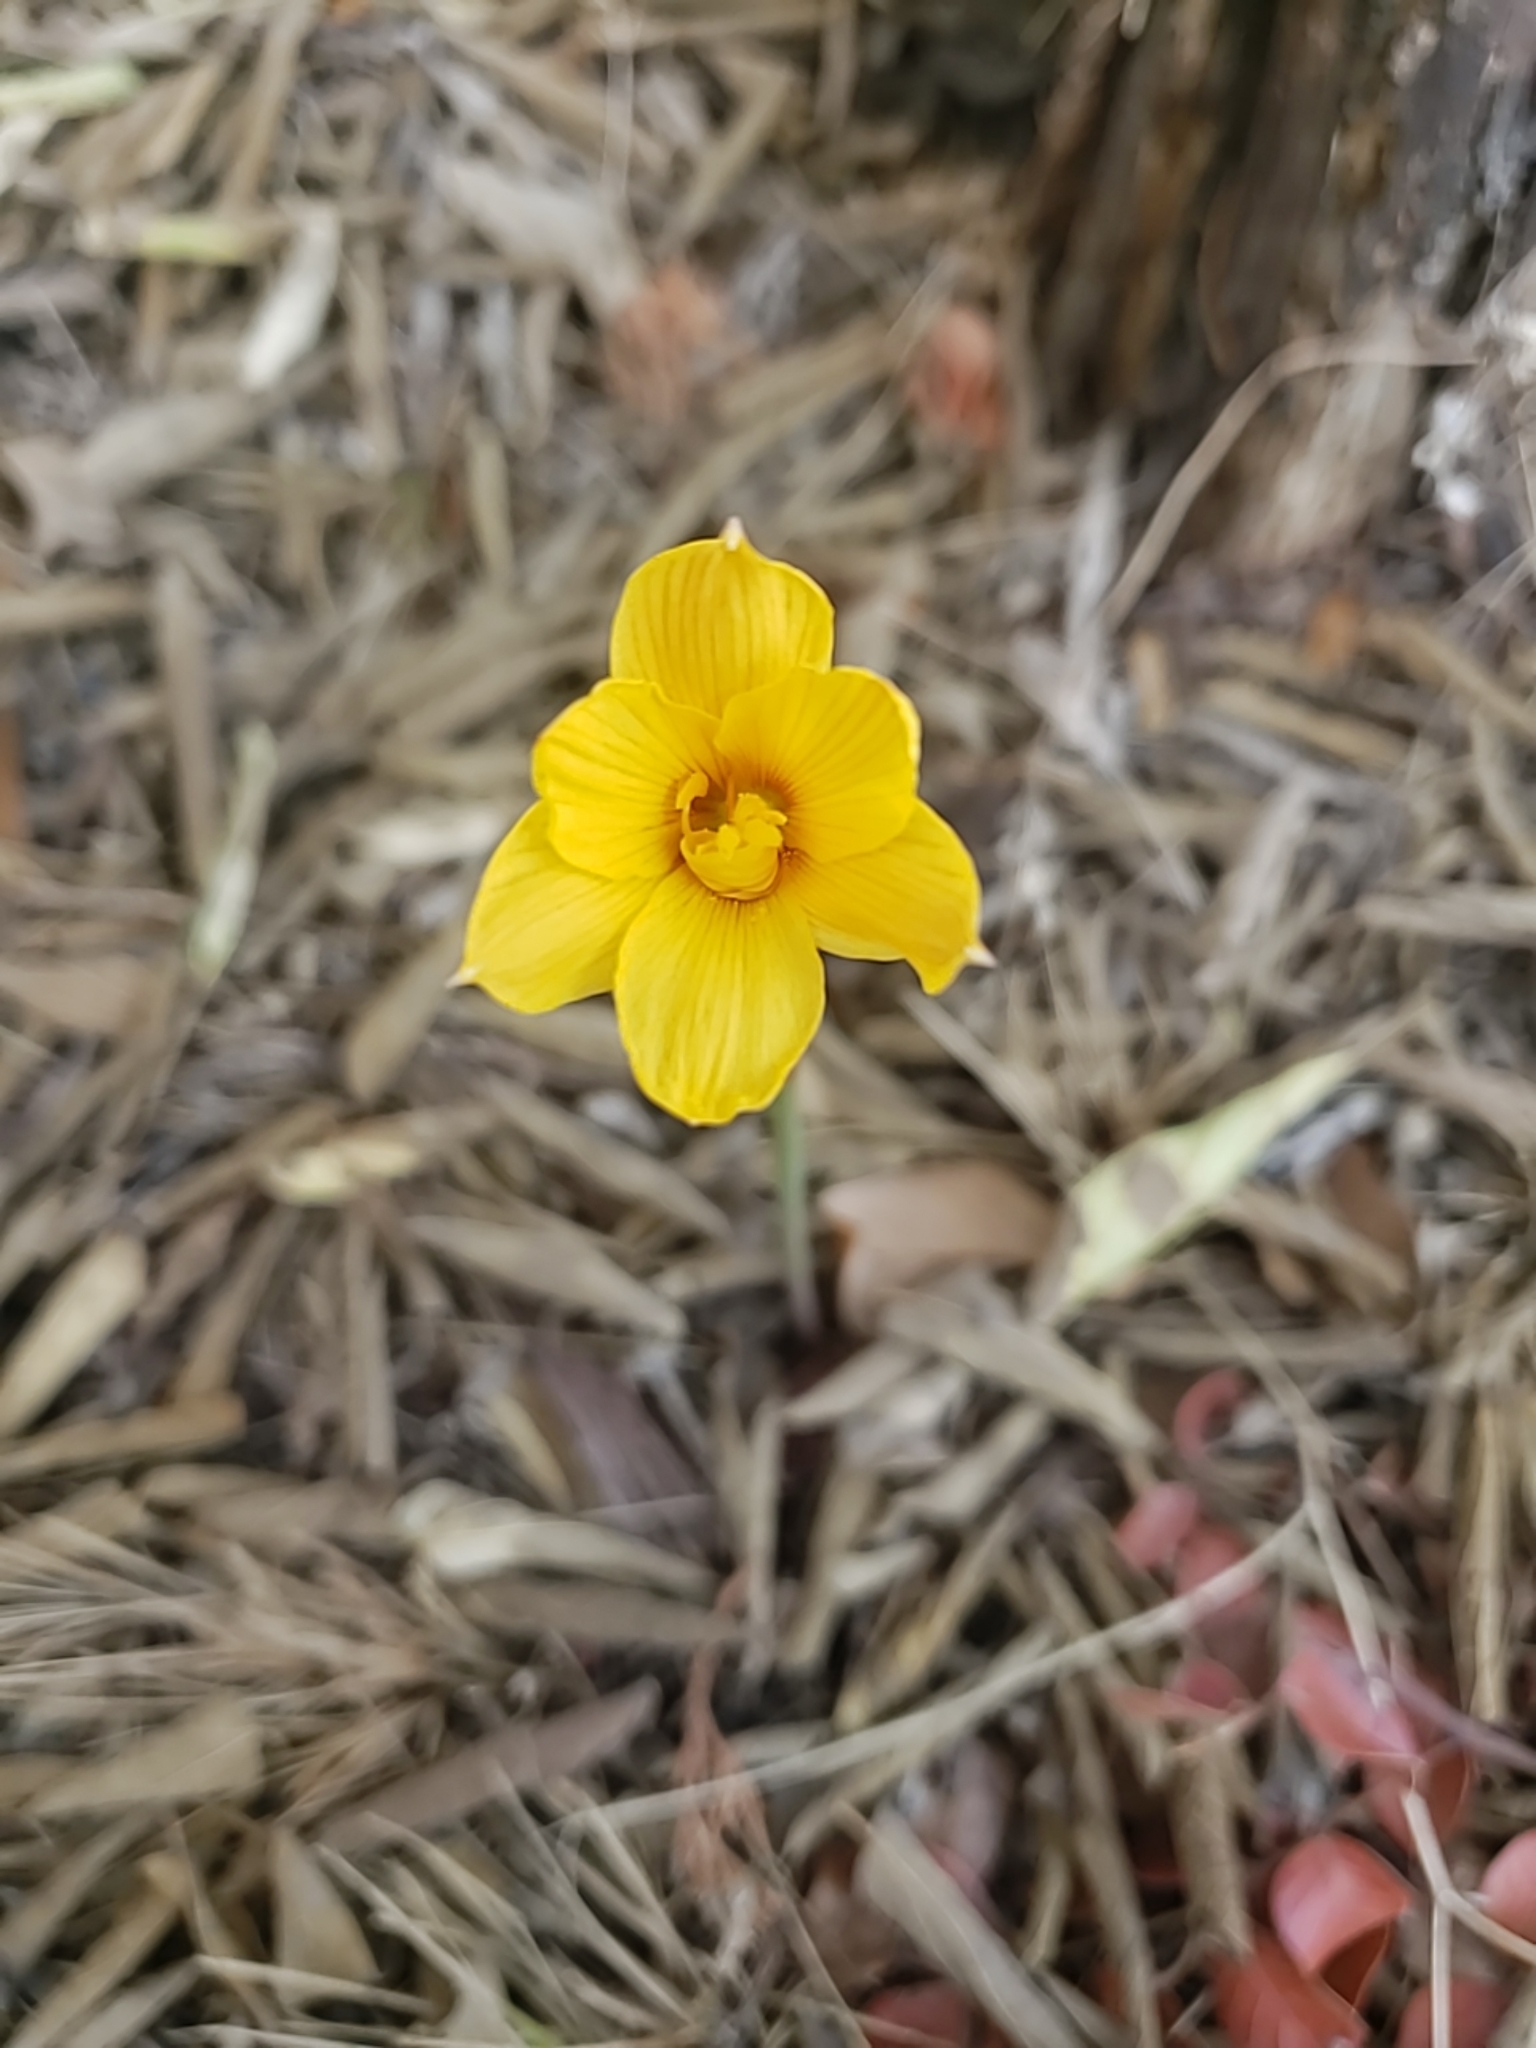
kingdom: Plantae
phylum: Tracheophyta
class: Liliopsida
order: Asparagales
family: Amaryllidaceae
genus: Zephyranthes
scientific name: Zephyranthes tubispatha
